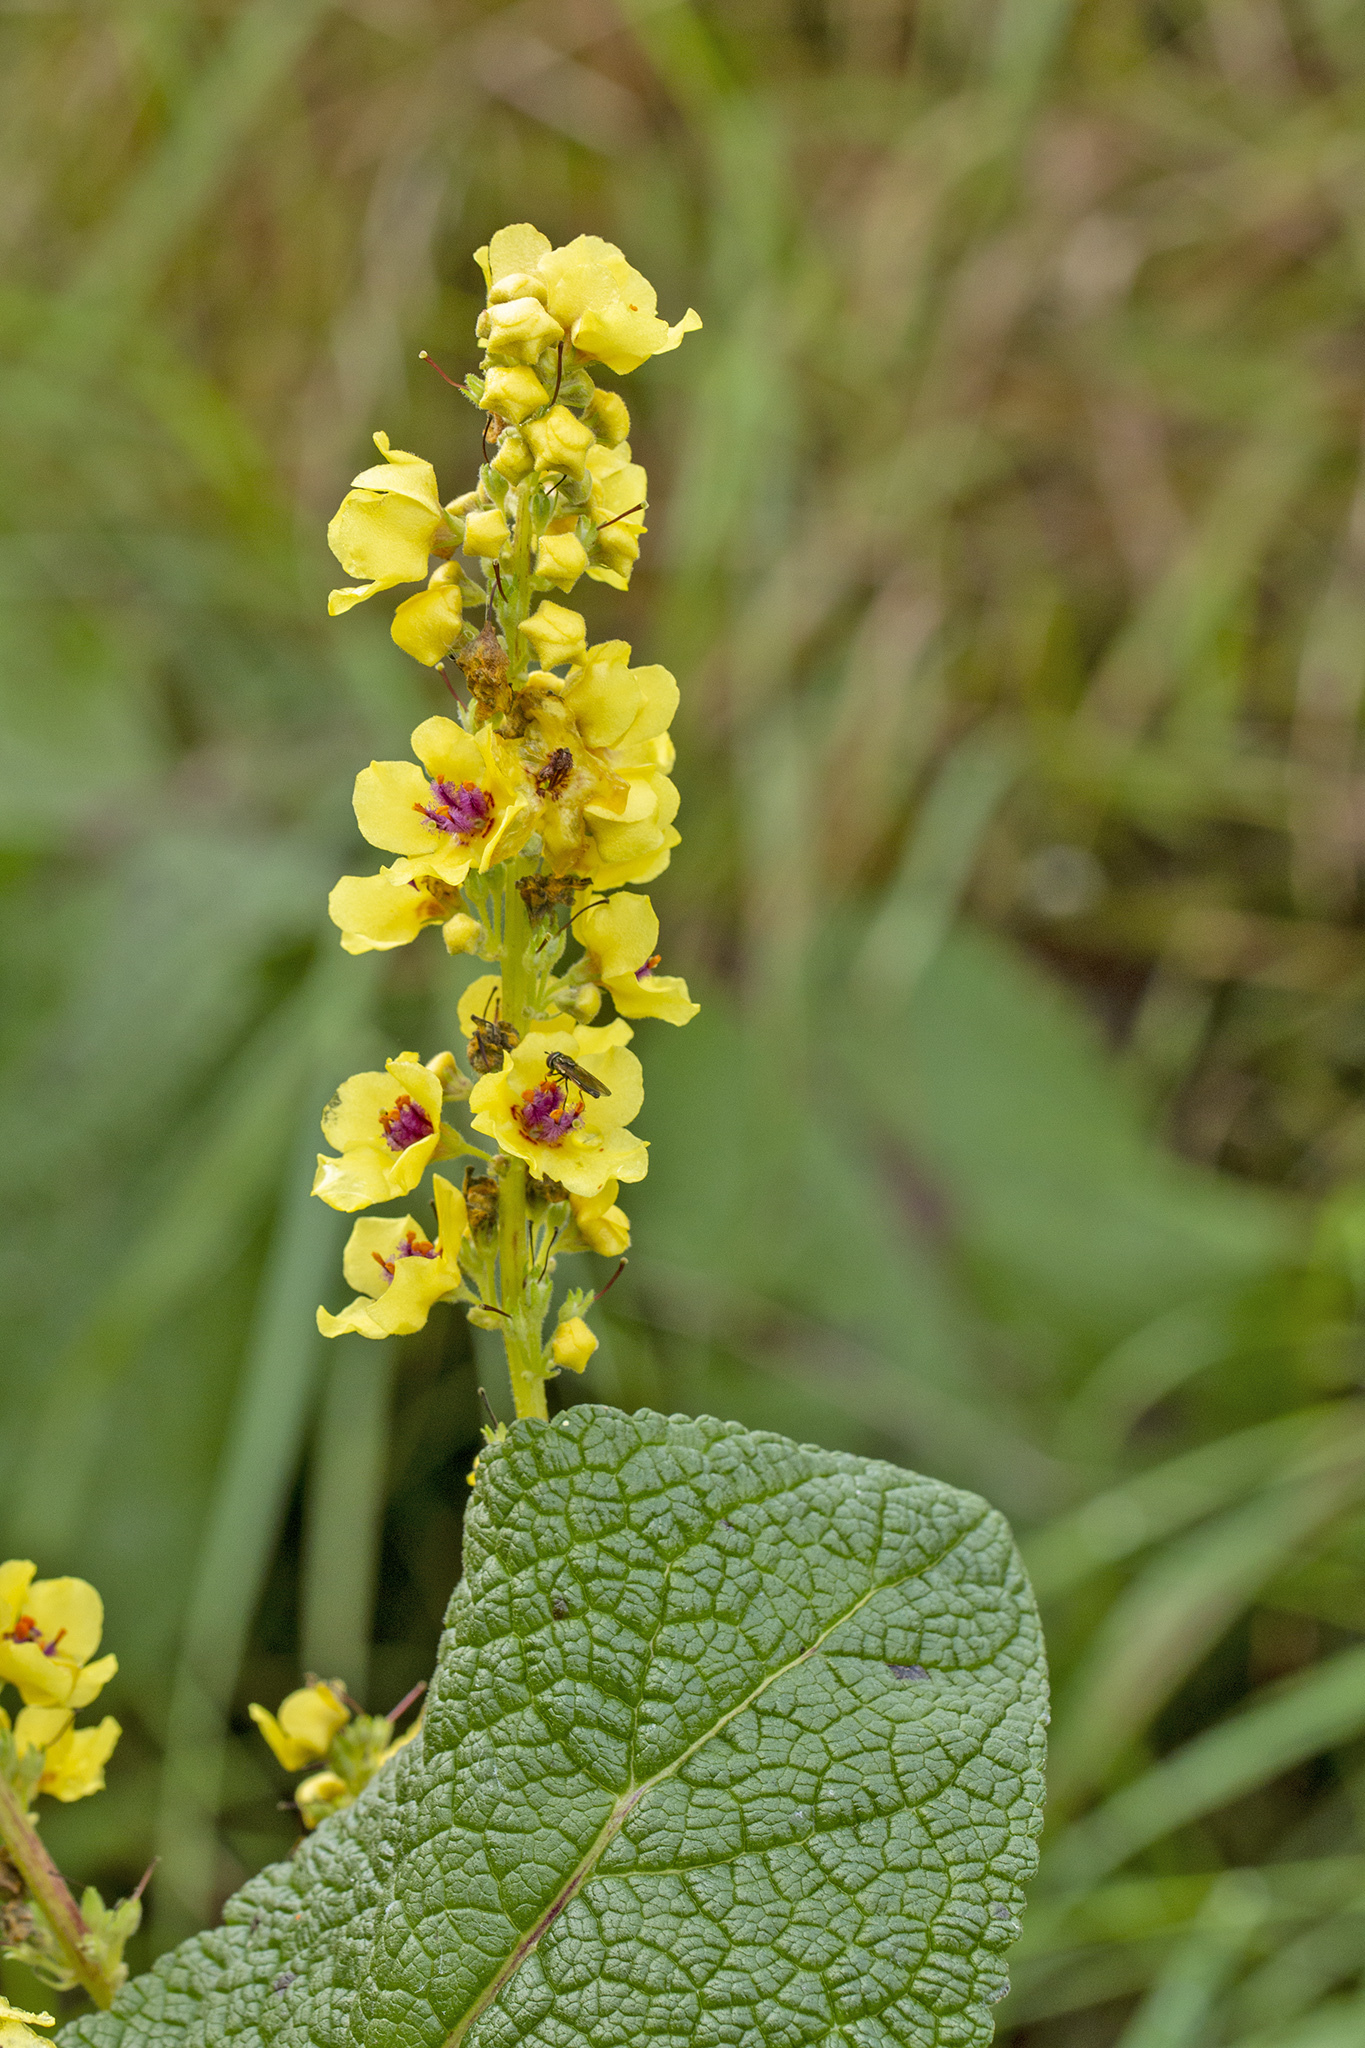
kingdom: Plantae
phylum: Tracheophyta
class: Magnoliopsida
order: Lamiales
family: Scrophulariaceae
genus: Verbascum
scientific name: Verbascum nigrum
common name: Dark mullein
